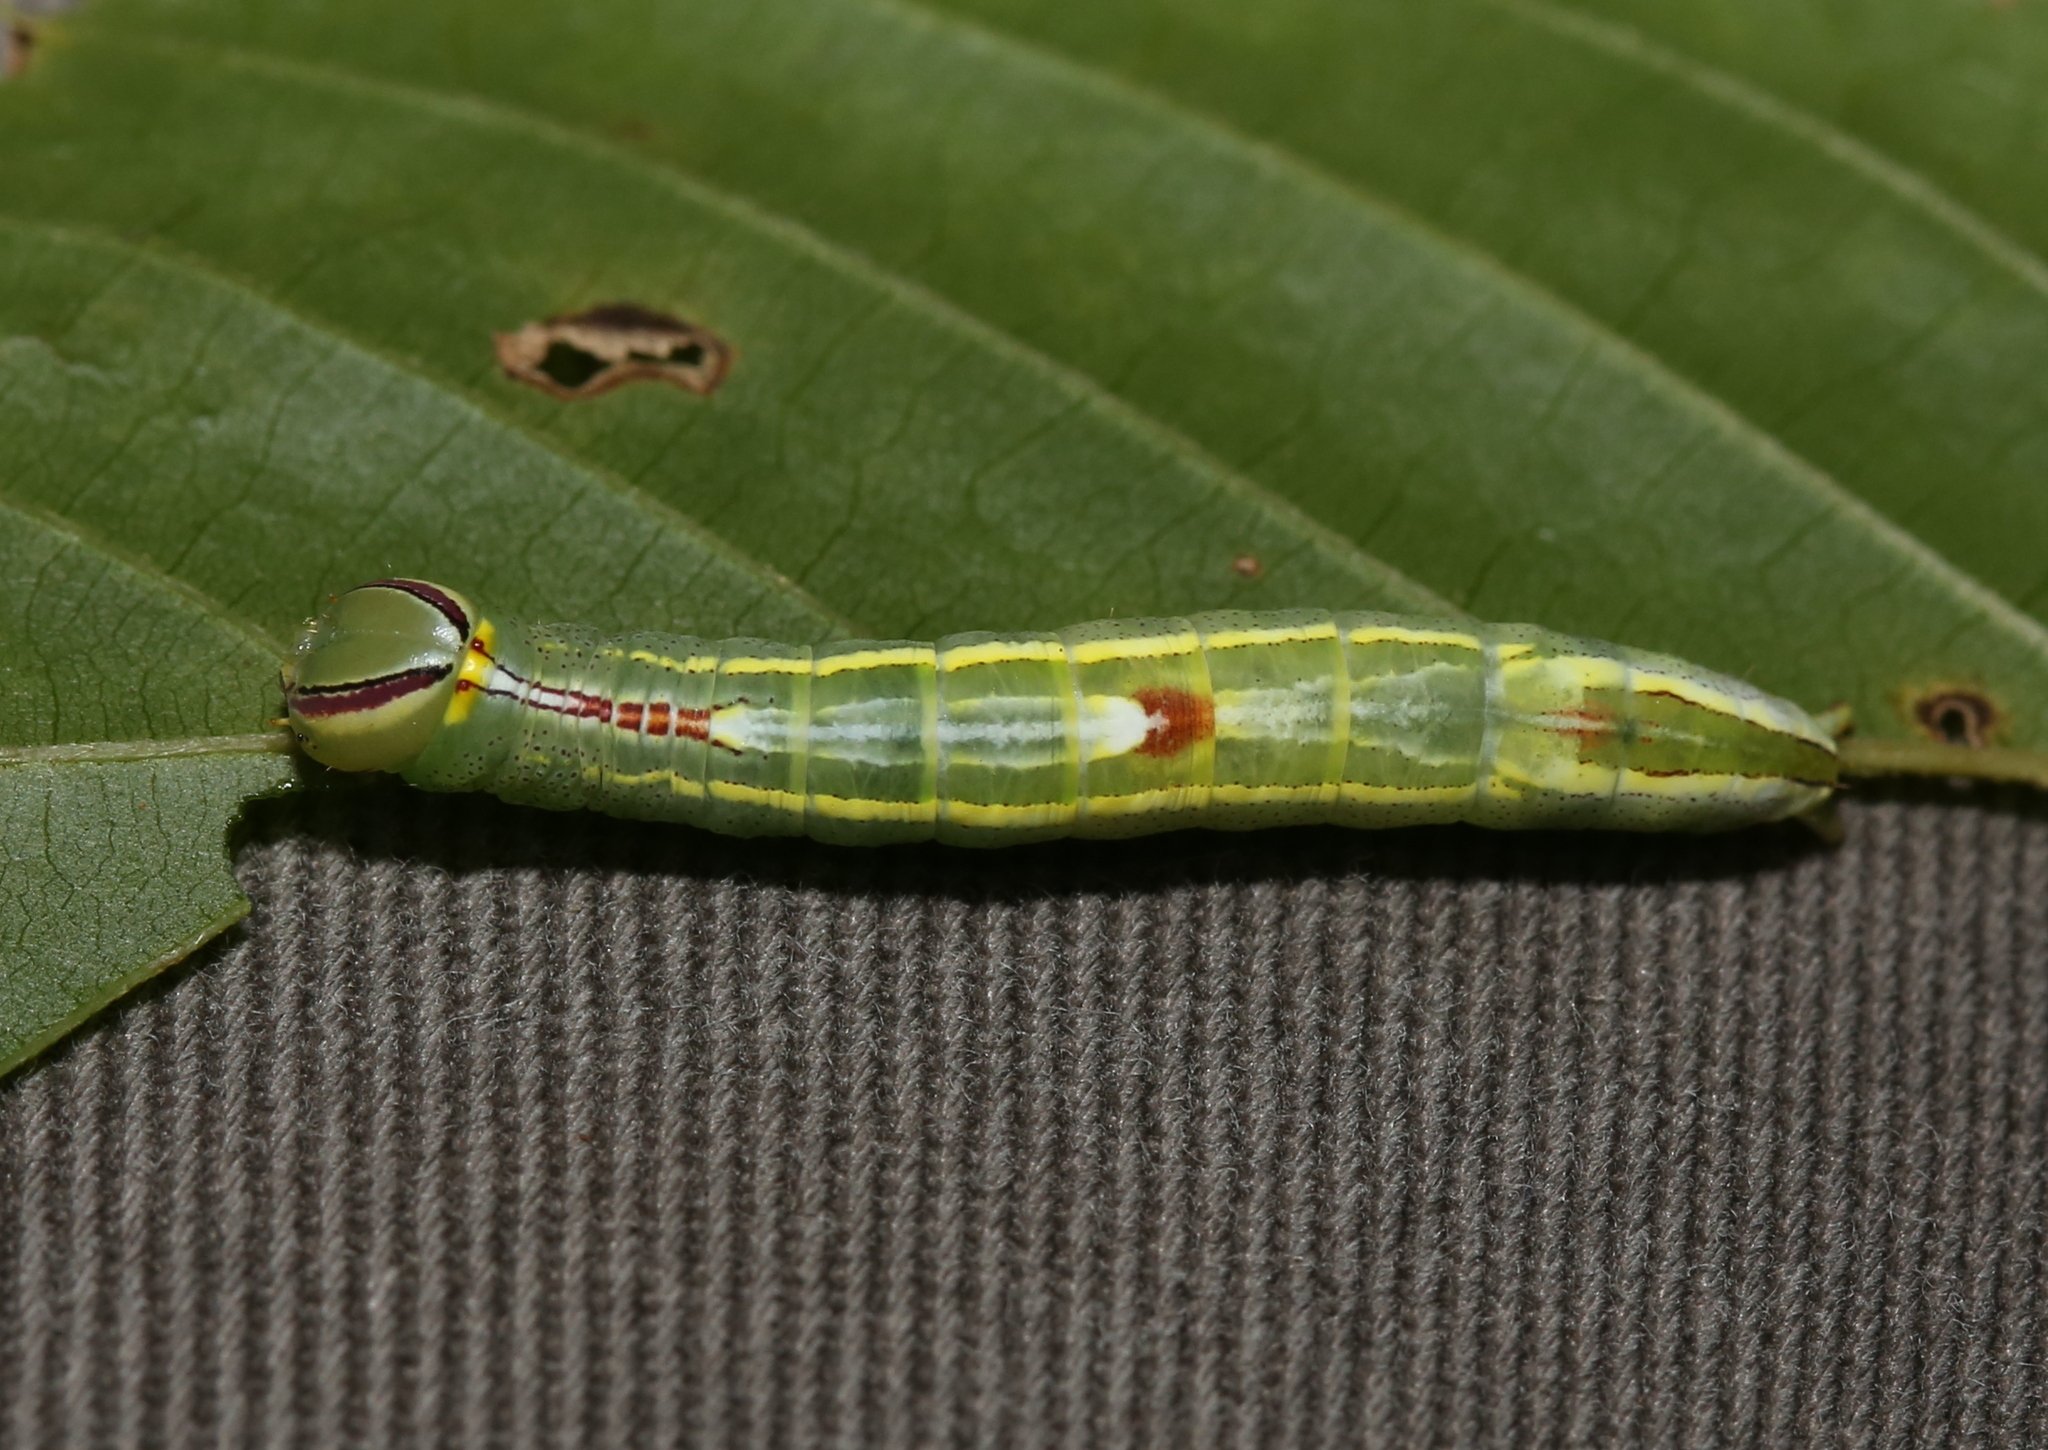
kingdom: Animalia
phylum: Arthropoda
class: Insecta
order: Lepidoptera
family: Notodontidae
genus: Disphragis
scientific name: Disphragis Cecrita guttivitta
